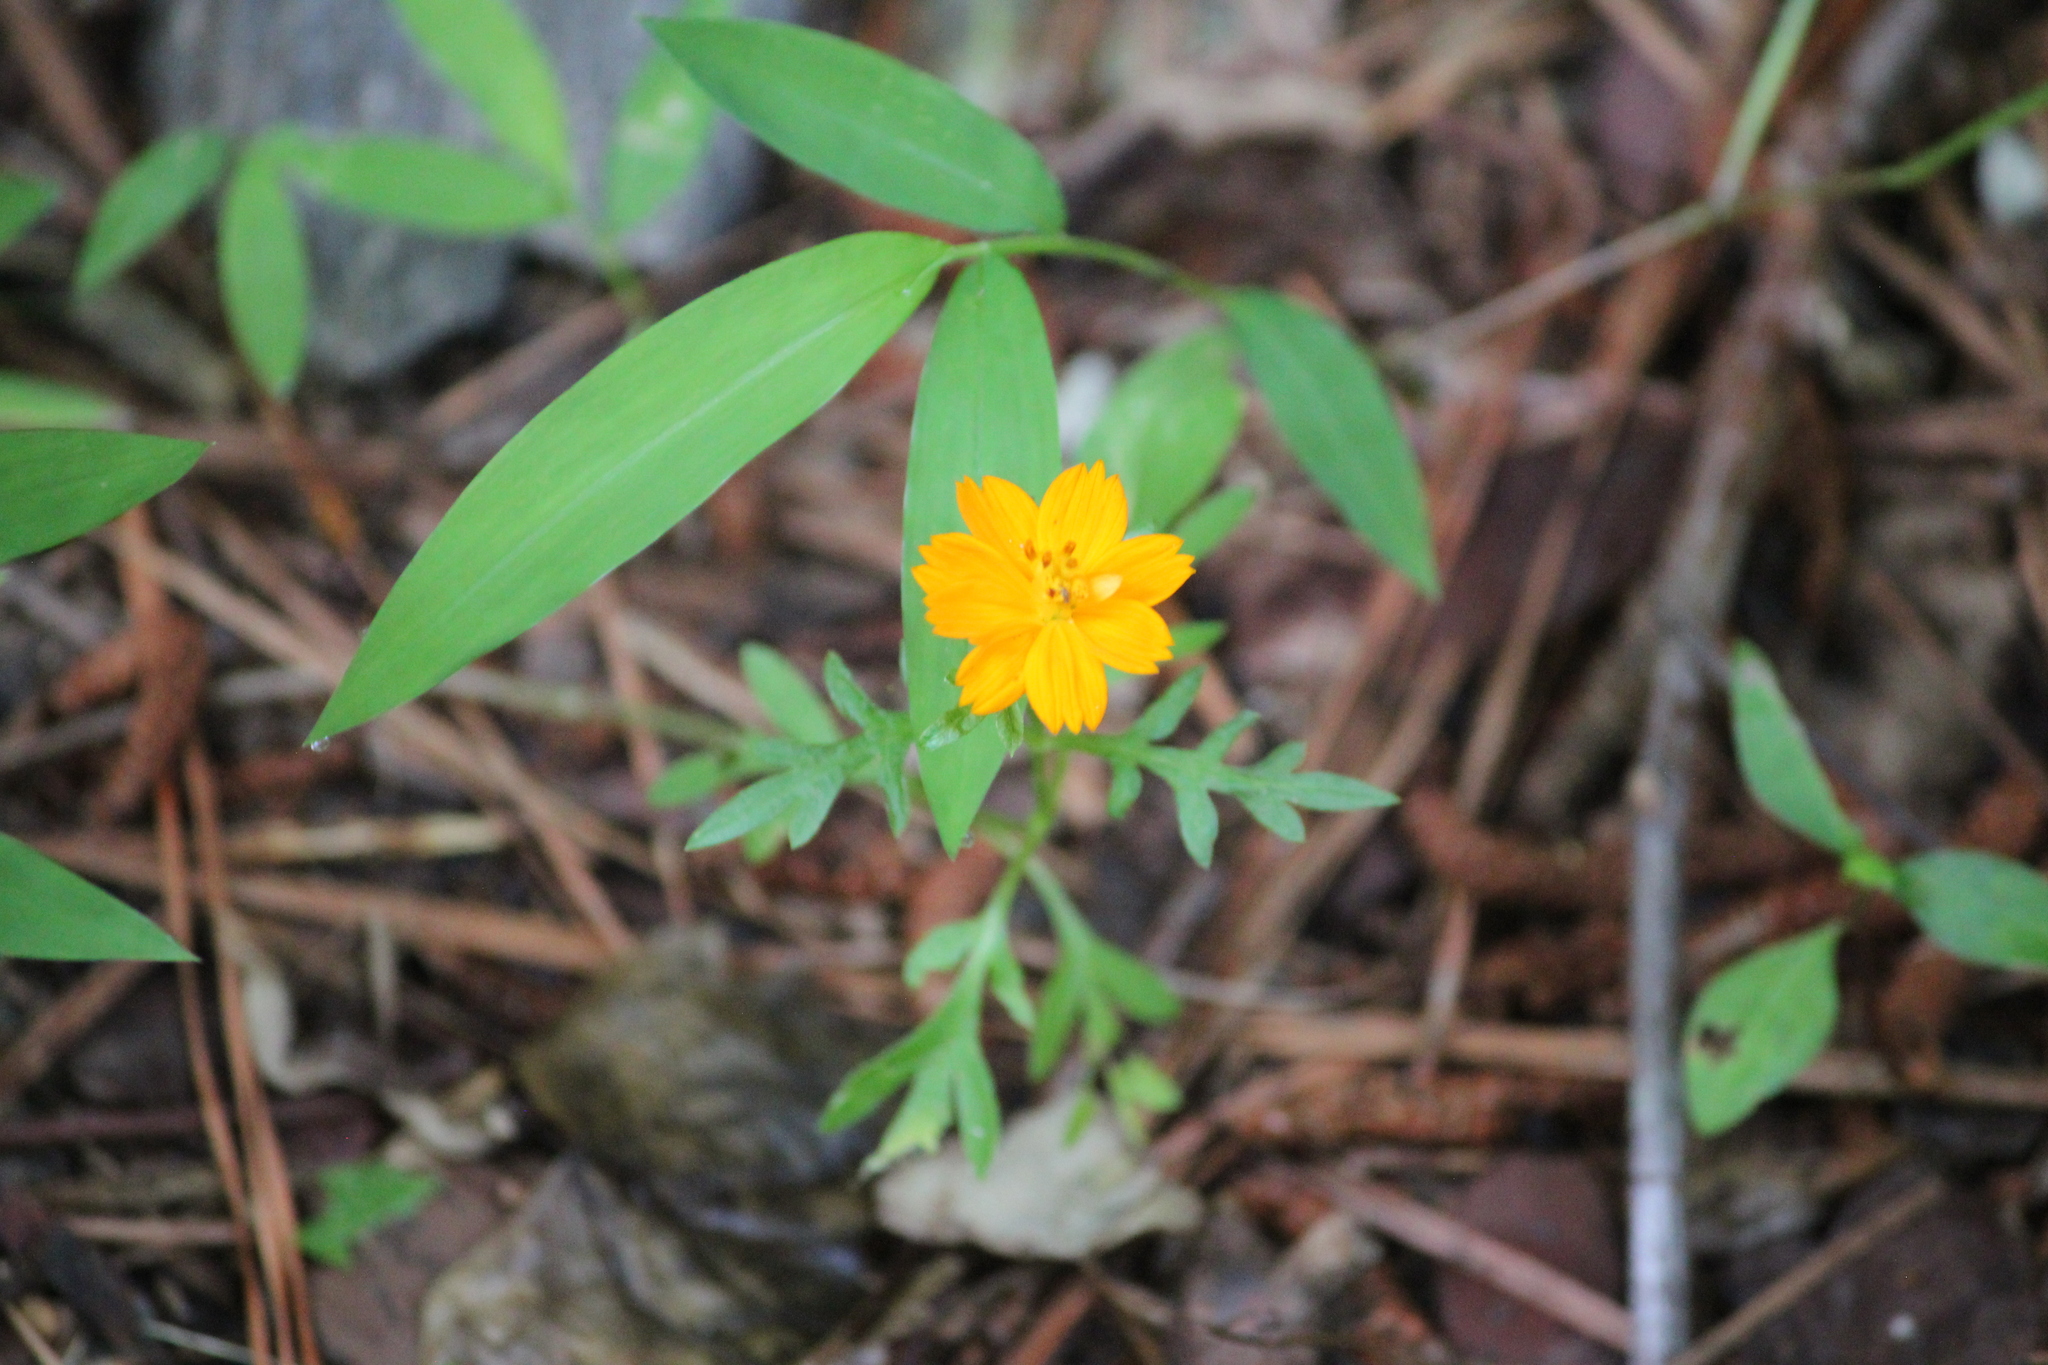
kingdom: Plantae
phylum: Tracheophyta
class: Magnoliopsida
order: Asterales
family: Asteraceae
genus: Cosmos
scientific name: Cosmos sulphureus
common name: Sulphur cosmos
